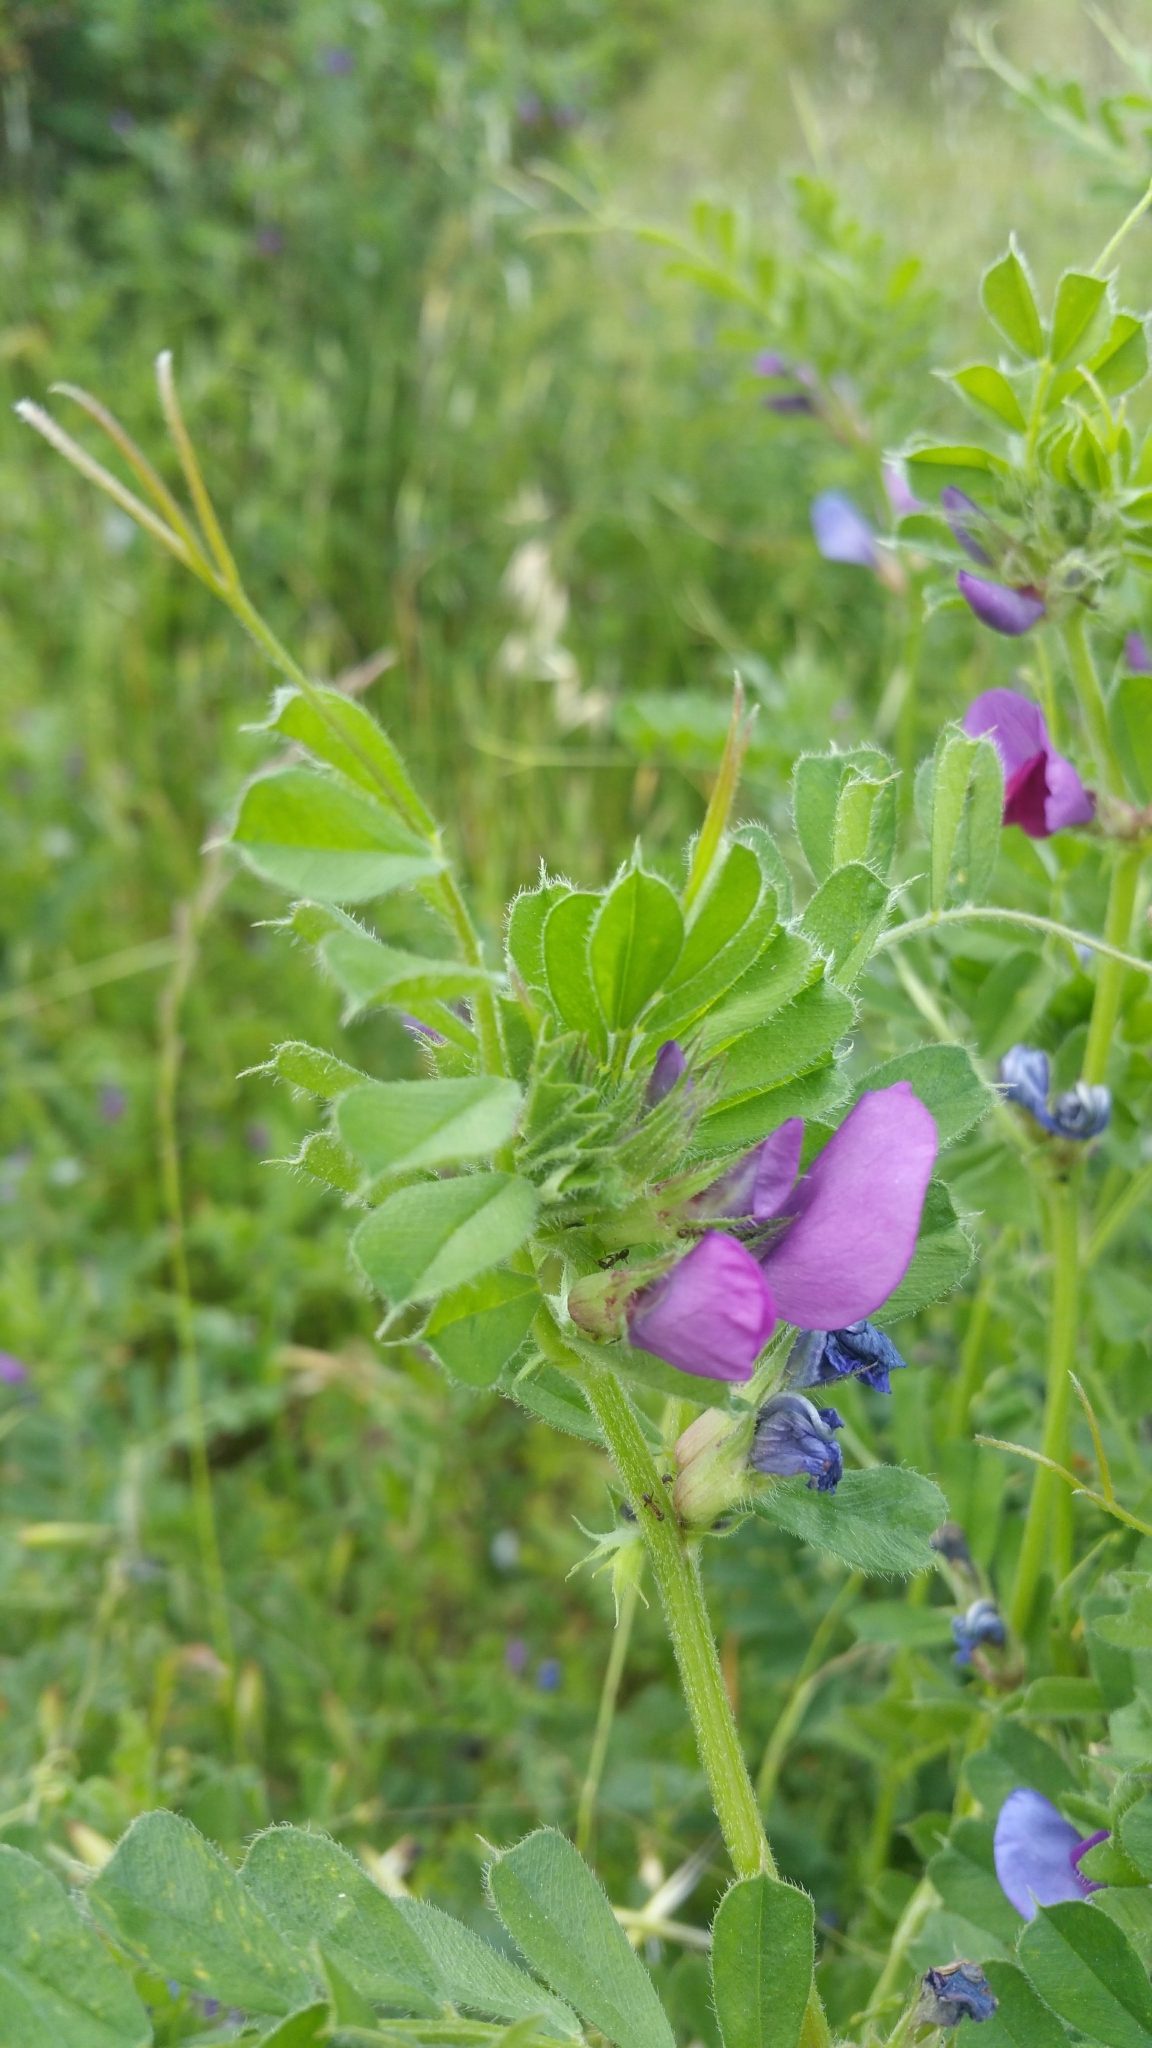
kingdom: Plantae
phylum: Tracheophyta
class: Magnoliopsida
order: Fabales
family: Fabaceae
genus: Vicia
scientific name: Vicia sativa
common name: Garden vetch
